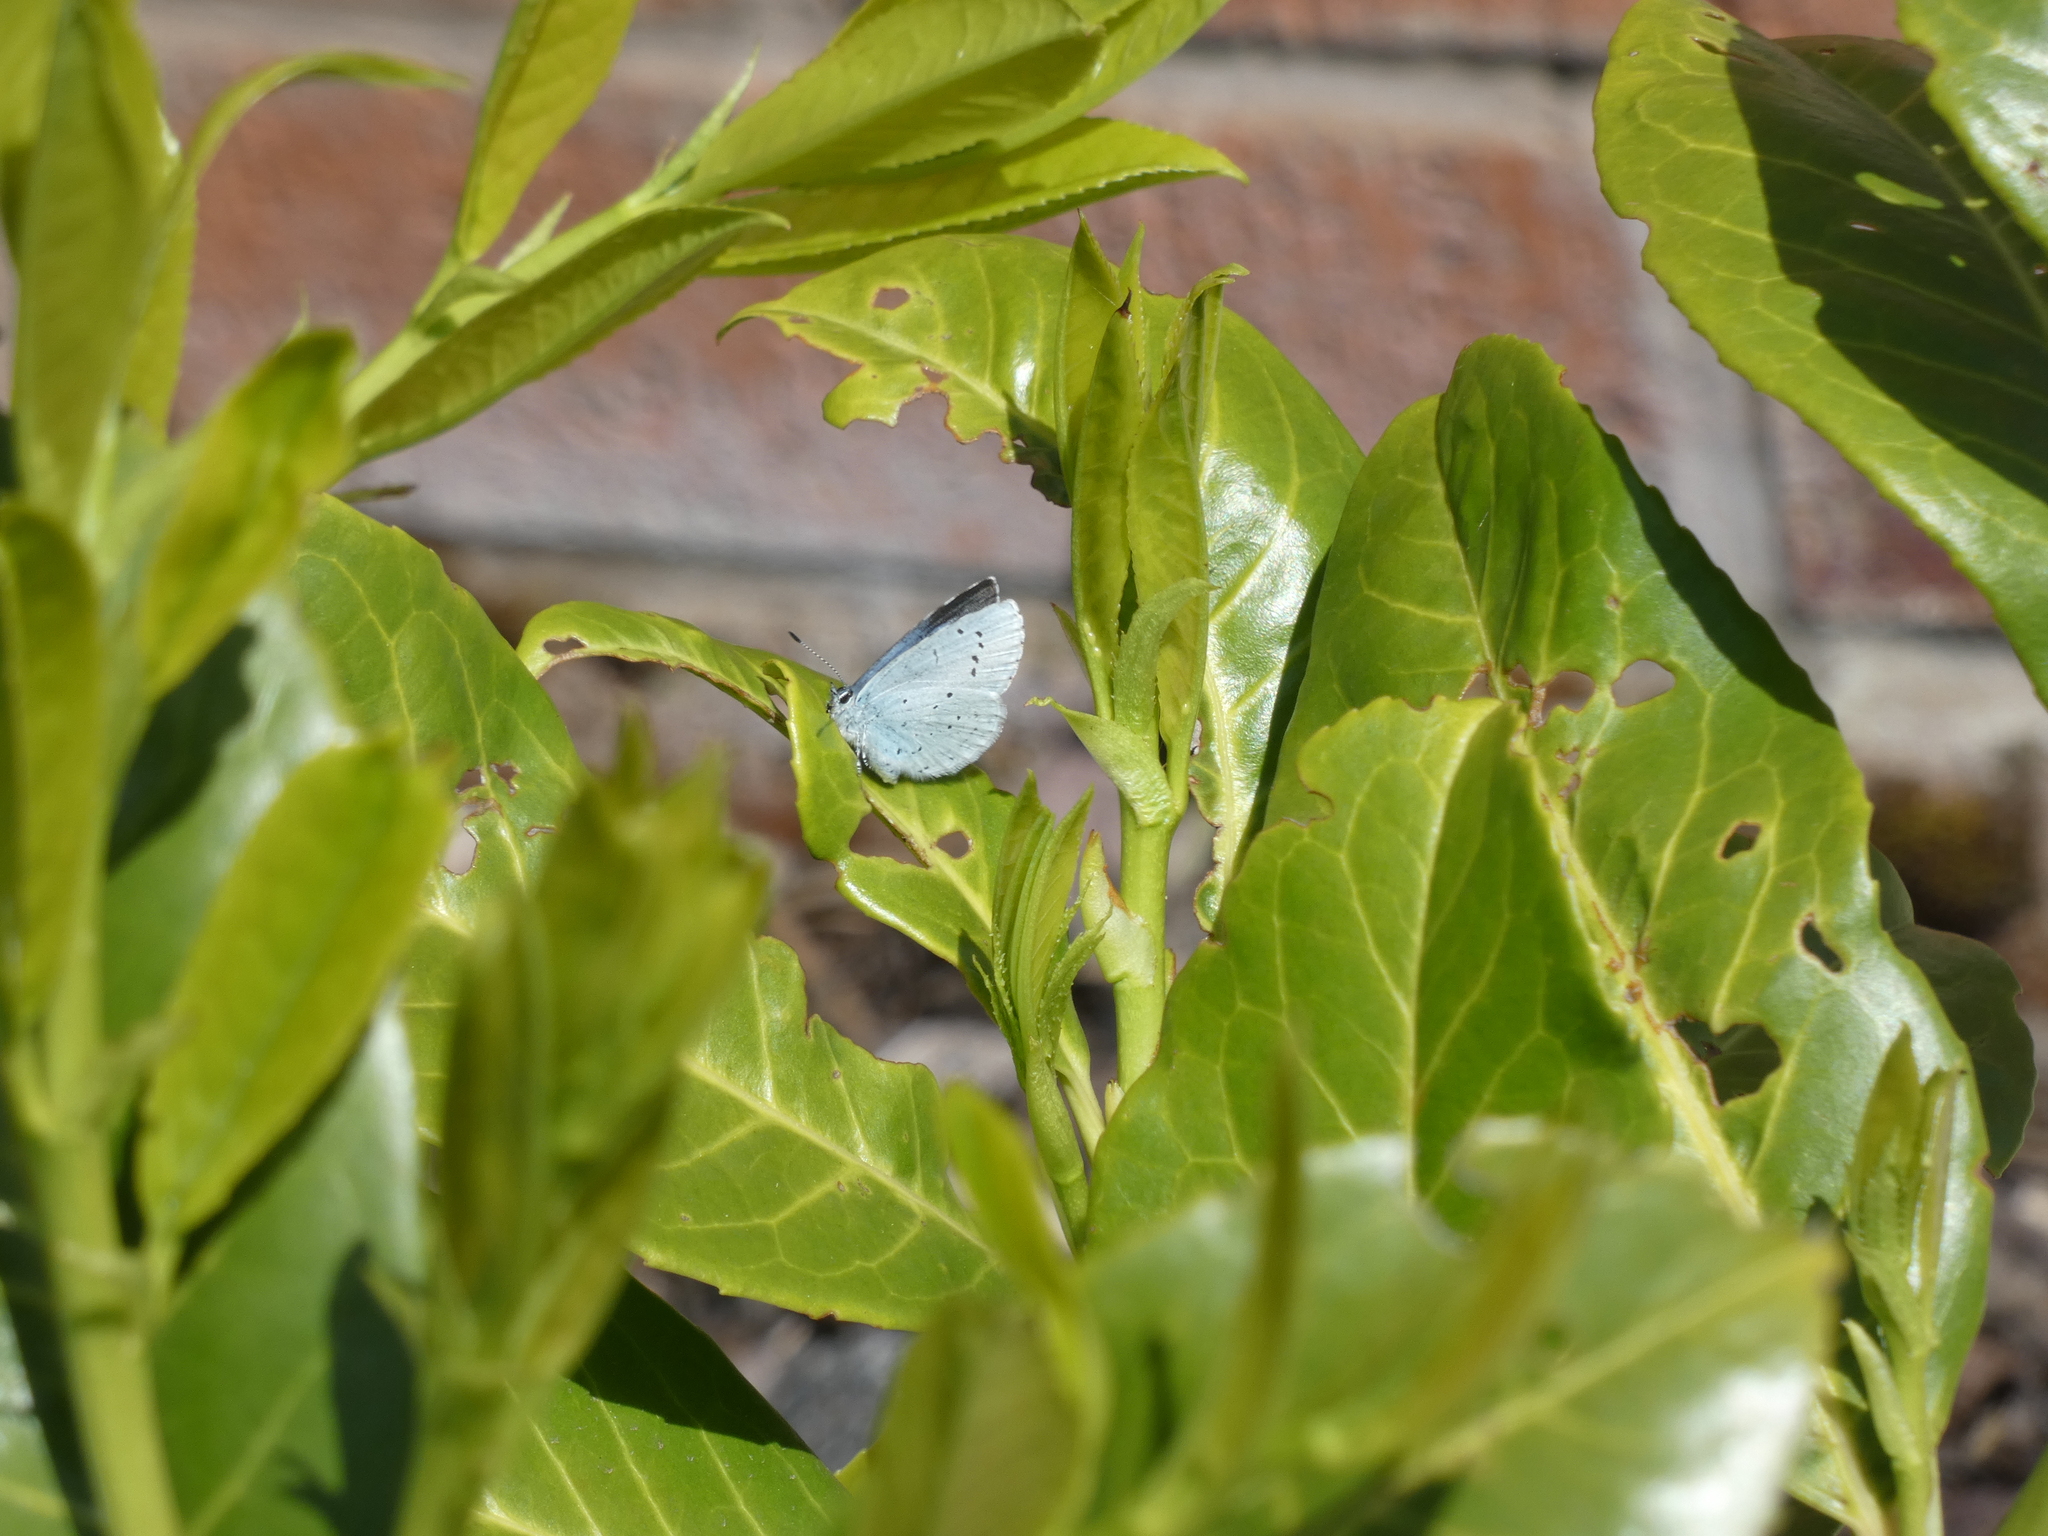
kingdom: Animalia
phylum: Arthropoda
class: Insecta
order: Lepidoptera
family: Lycaenidae
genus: Celastrina
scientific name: Celastrina argiolus
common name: Holly blue
